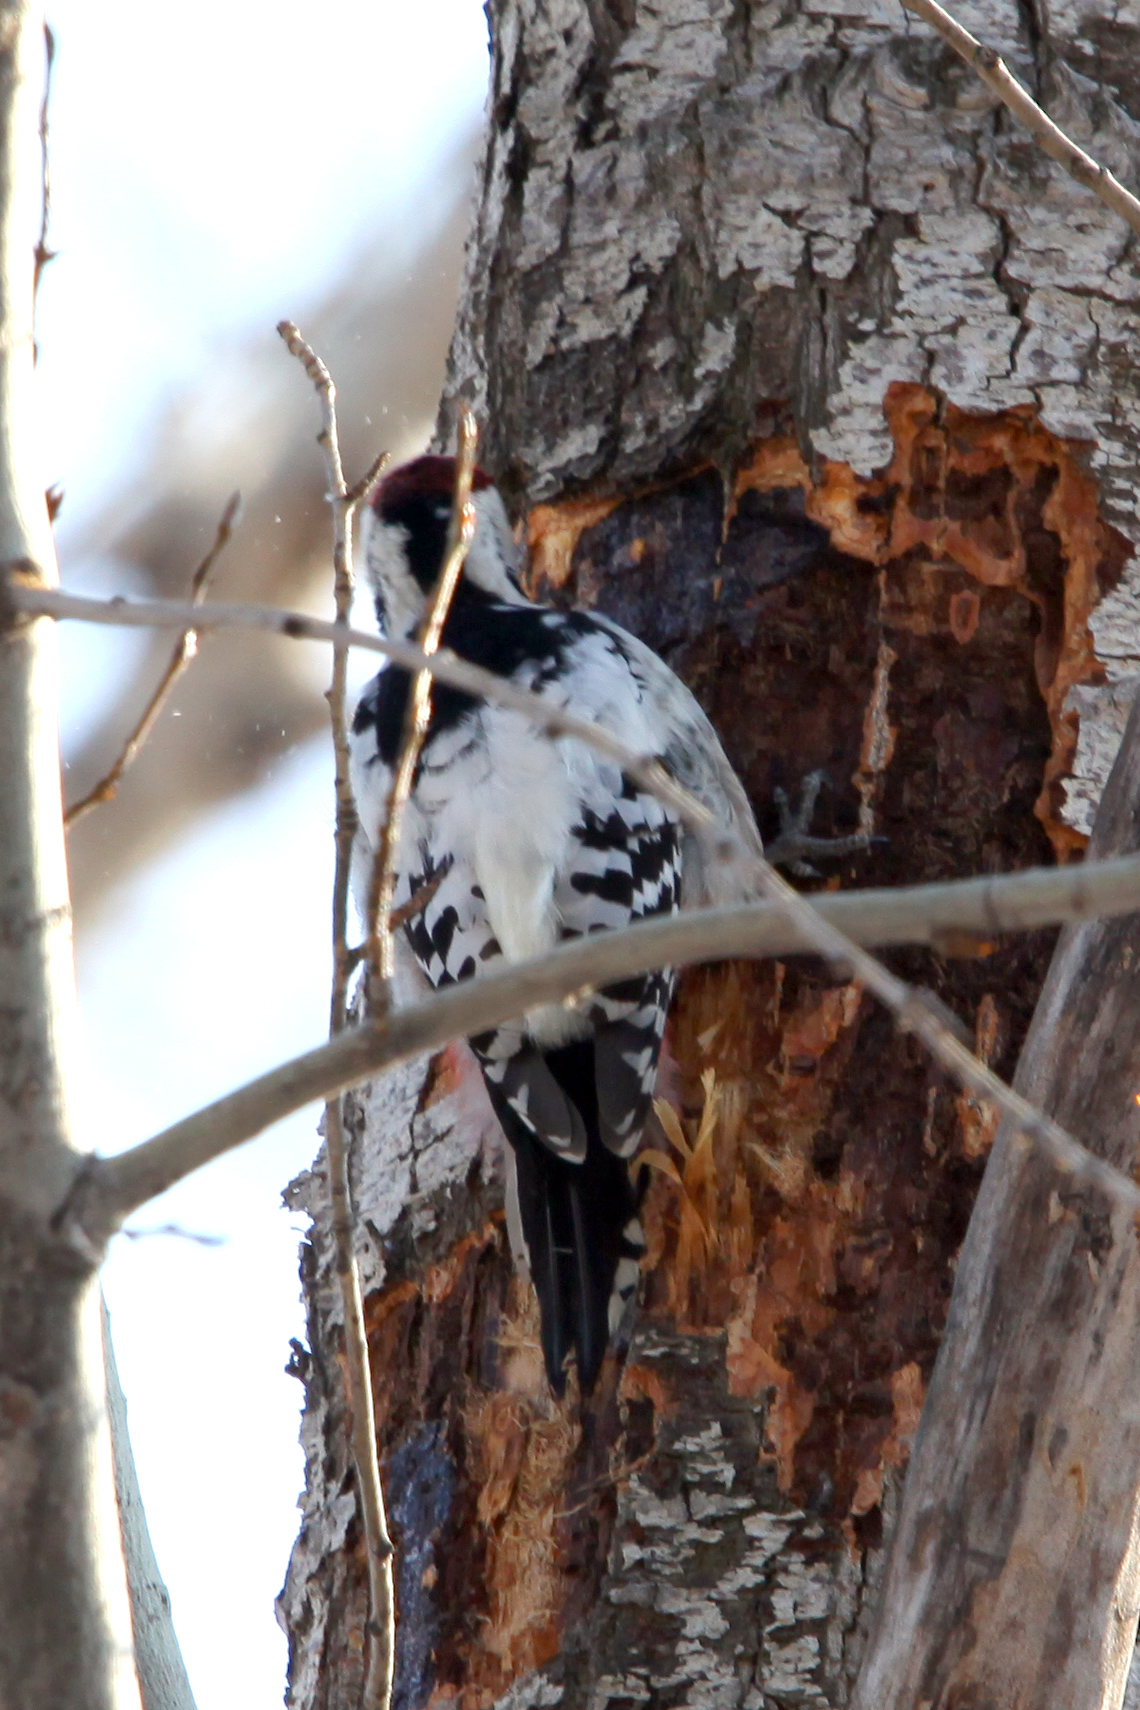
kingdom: Animalia
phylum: Chordata
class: Aves
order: Piciformes
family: Picidae
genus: Dendrocopos
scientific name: Dendrocopos leucotos
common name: White-backed woodpecker
